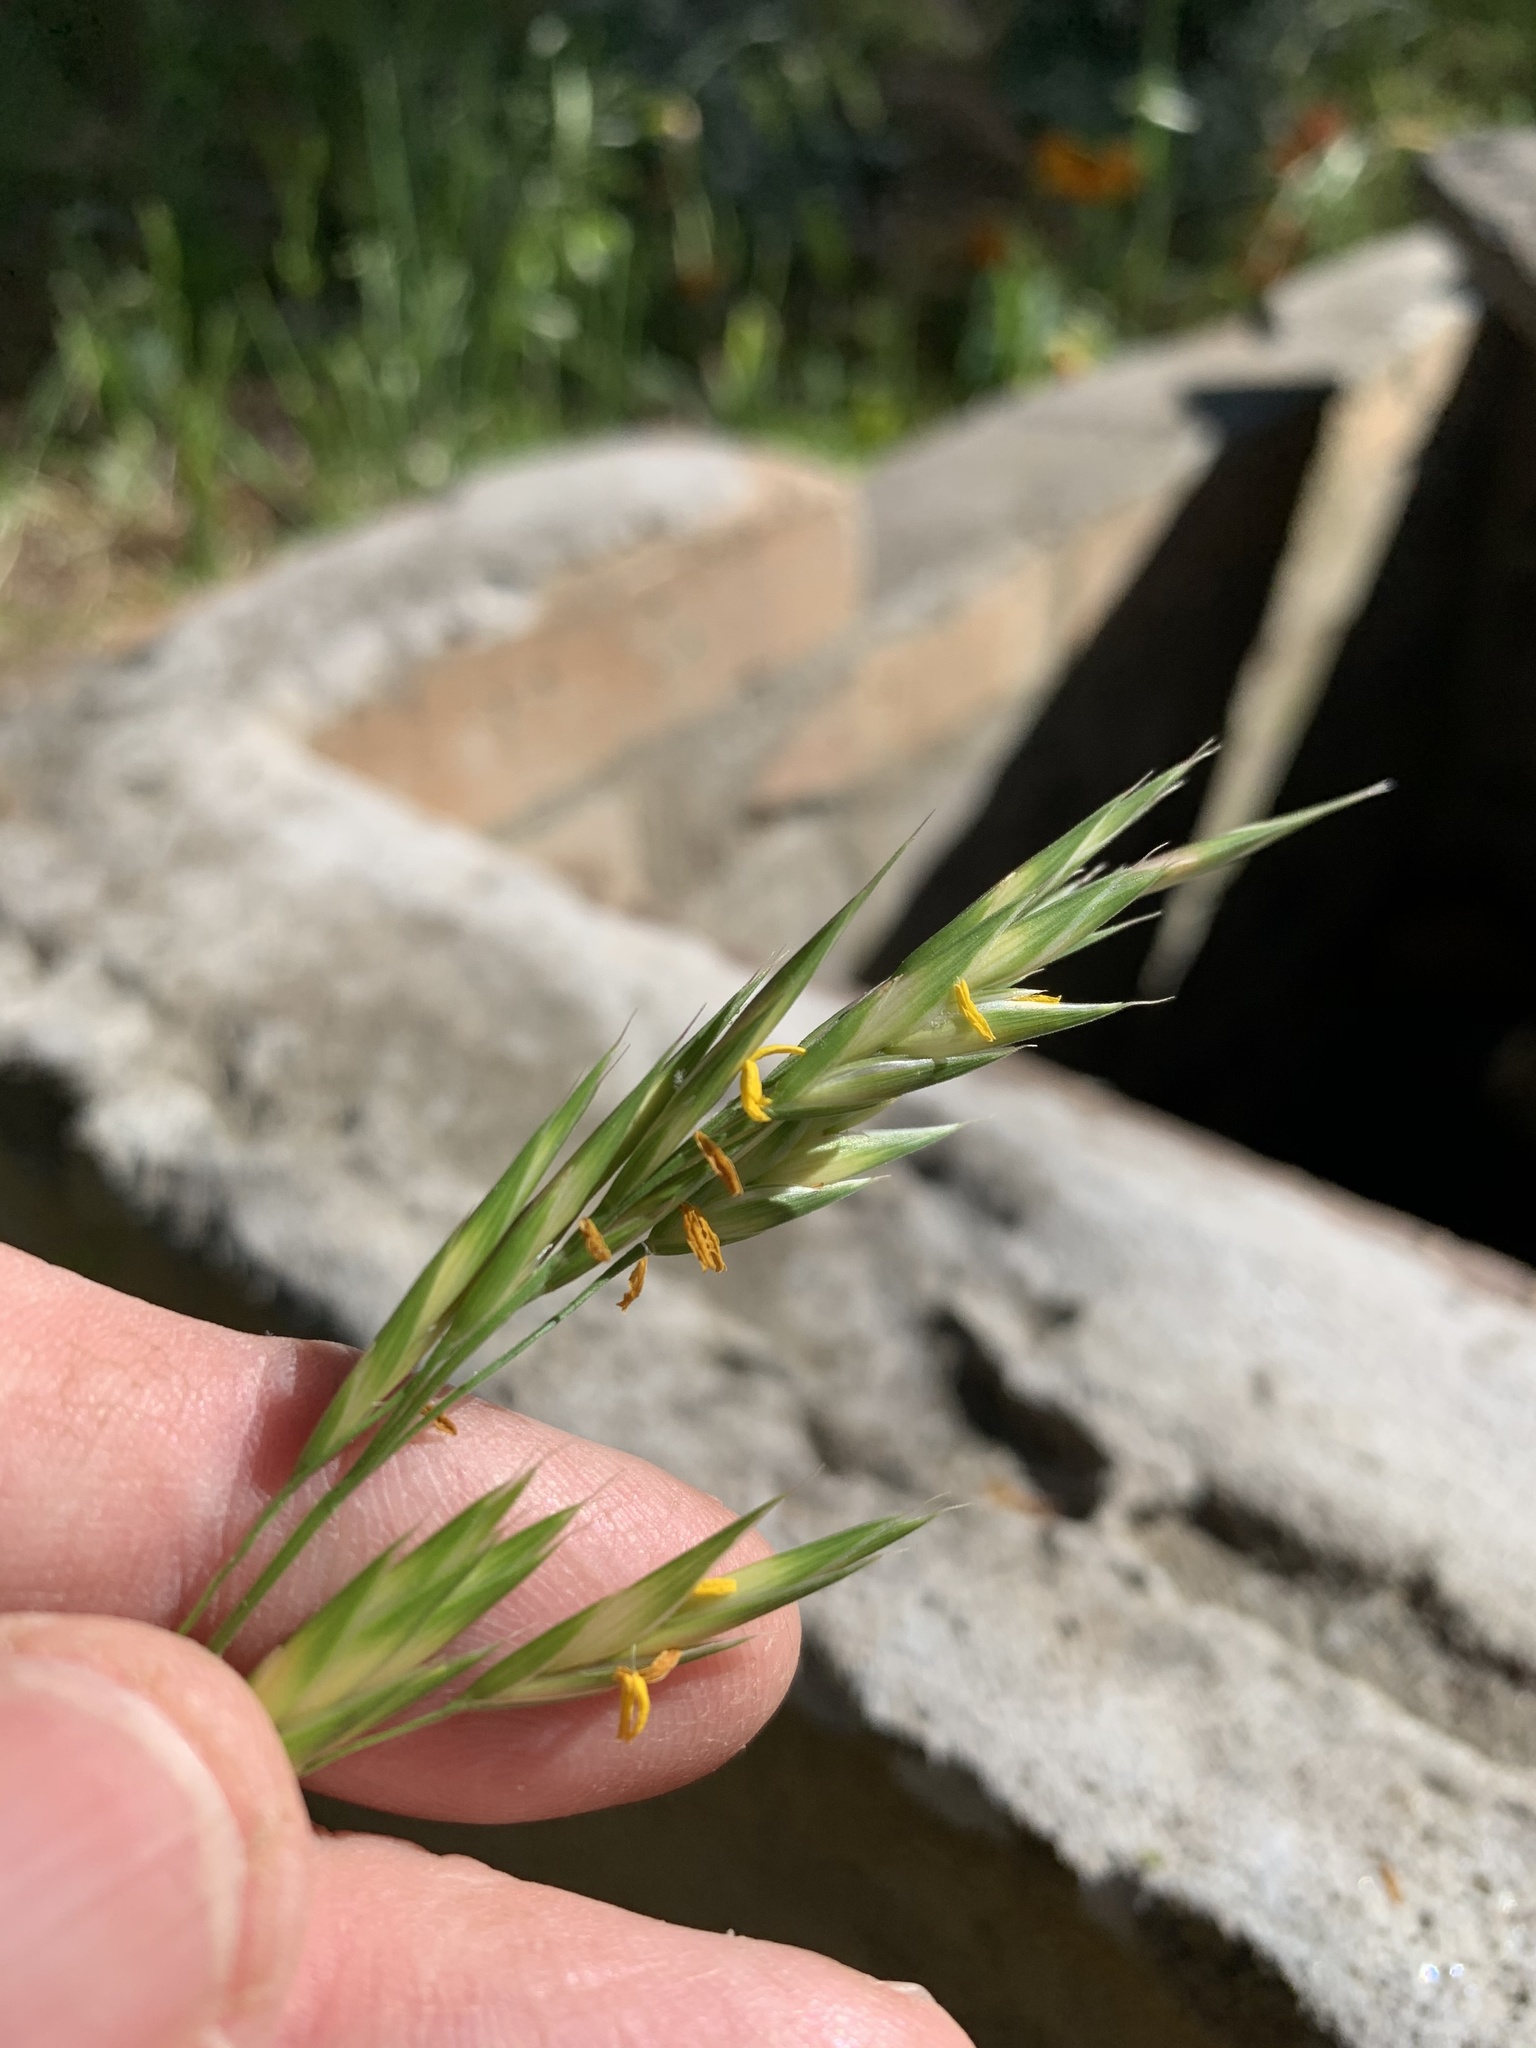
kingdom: Plantae
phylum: Tracheophyta
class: Liliopsida
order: Poales
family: Poaceae
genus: Bromus
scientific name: Bromus catharticus
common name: Rescuegrass
